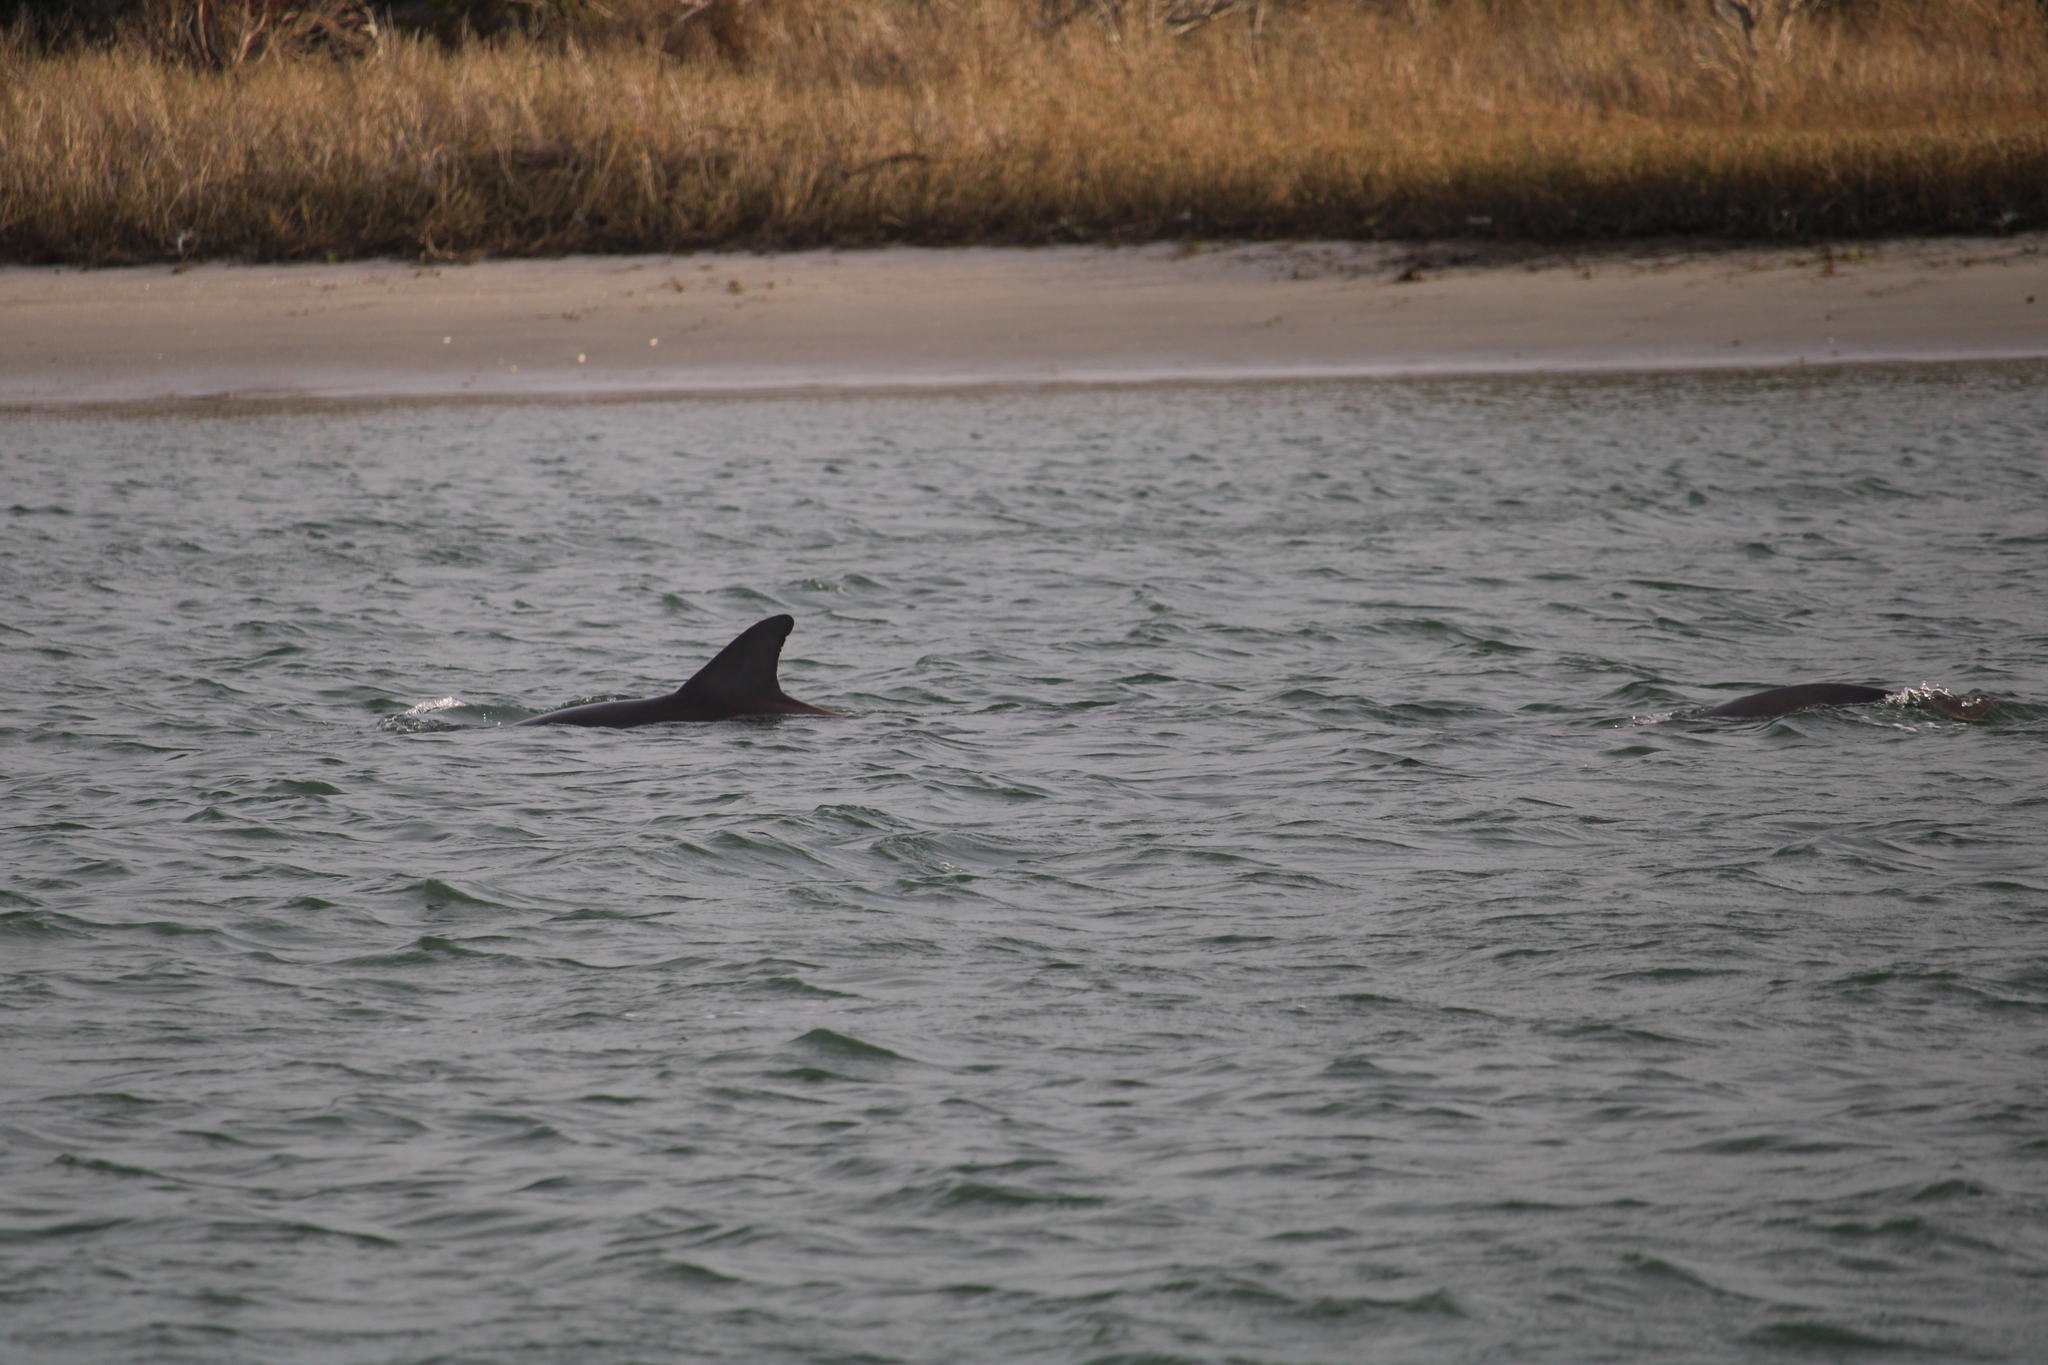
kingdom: Animalia
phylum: Chordata
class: Mammalia
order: Cetacea
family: Delphinidae
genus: Tursiops
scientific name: Tursiops truncatus
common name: Bottlenose dolphin
